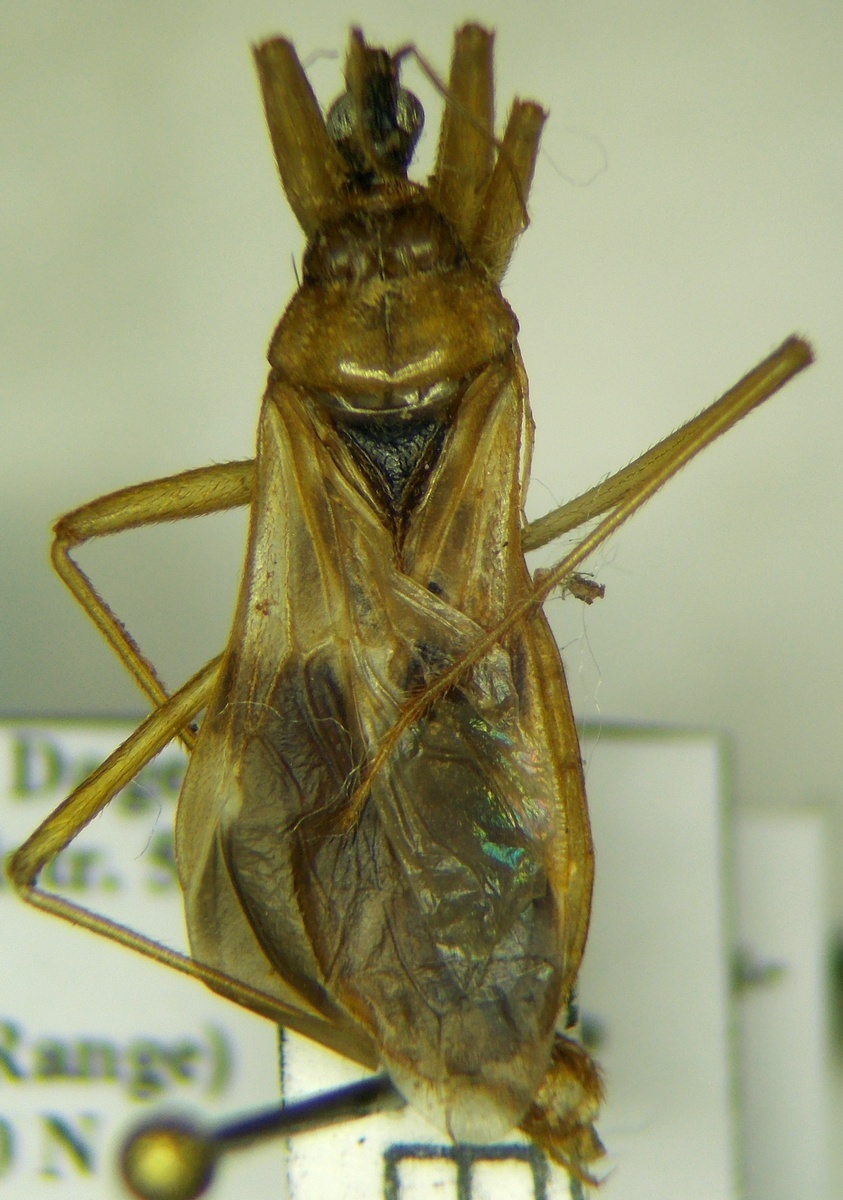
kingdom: Animalia
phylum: Arthropoda
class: Insecta
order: Hemiptera
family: Reduviidae
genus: Reduvius
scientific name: Reduvius testaceus
